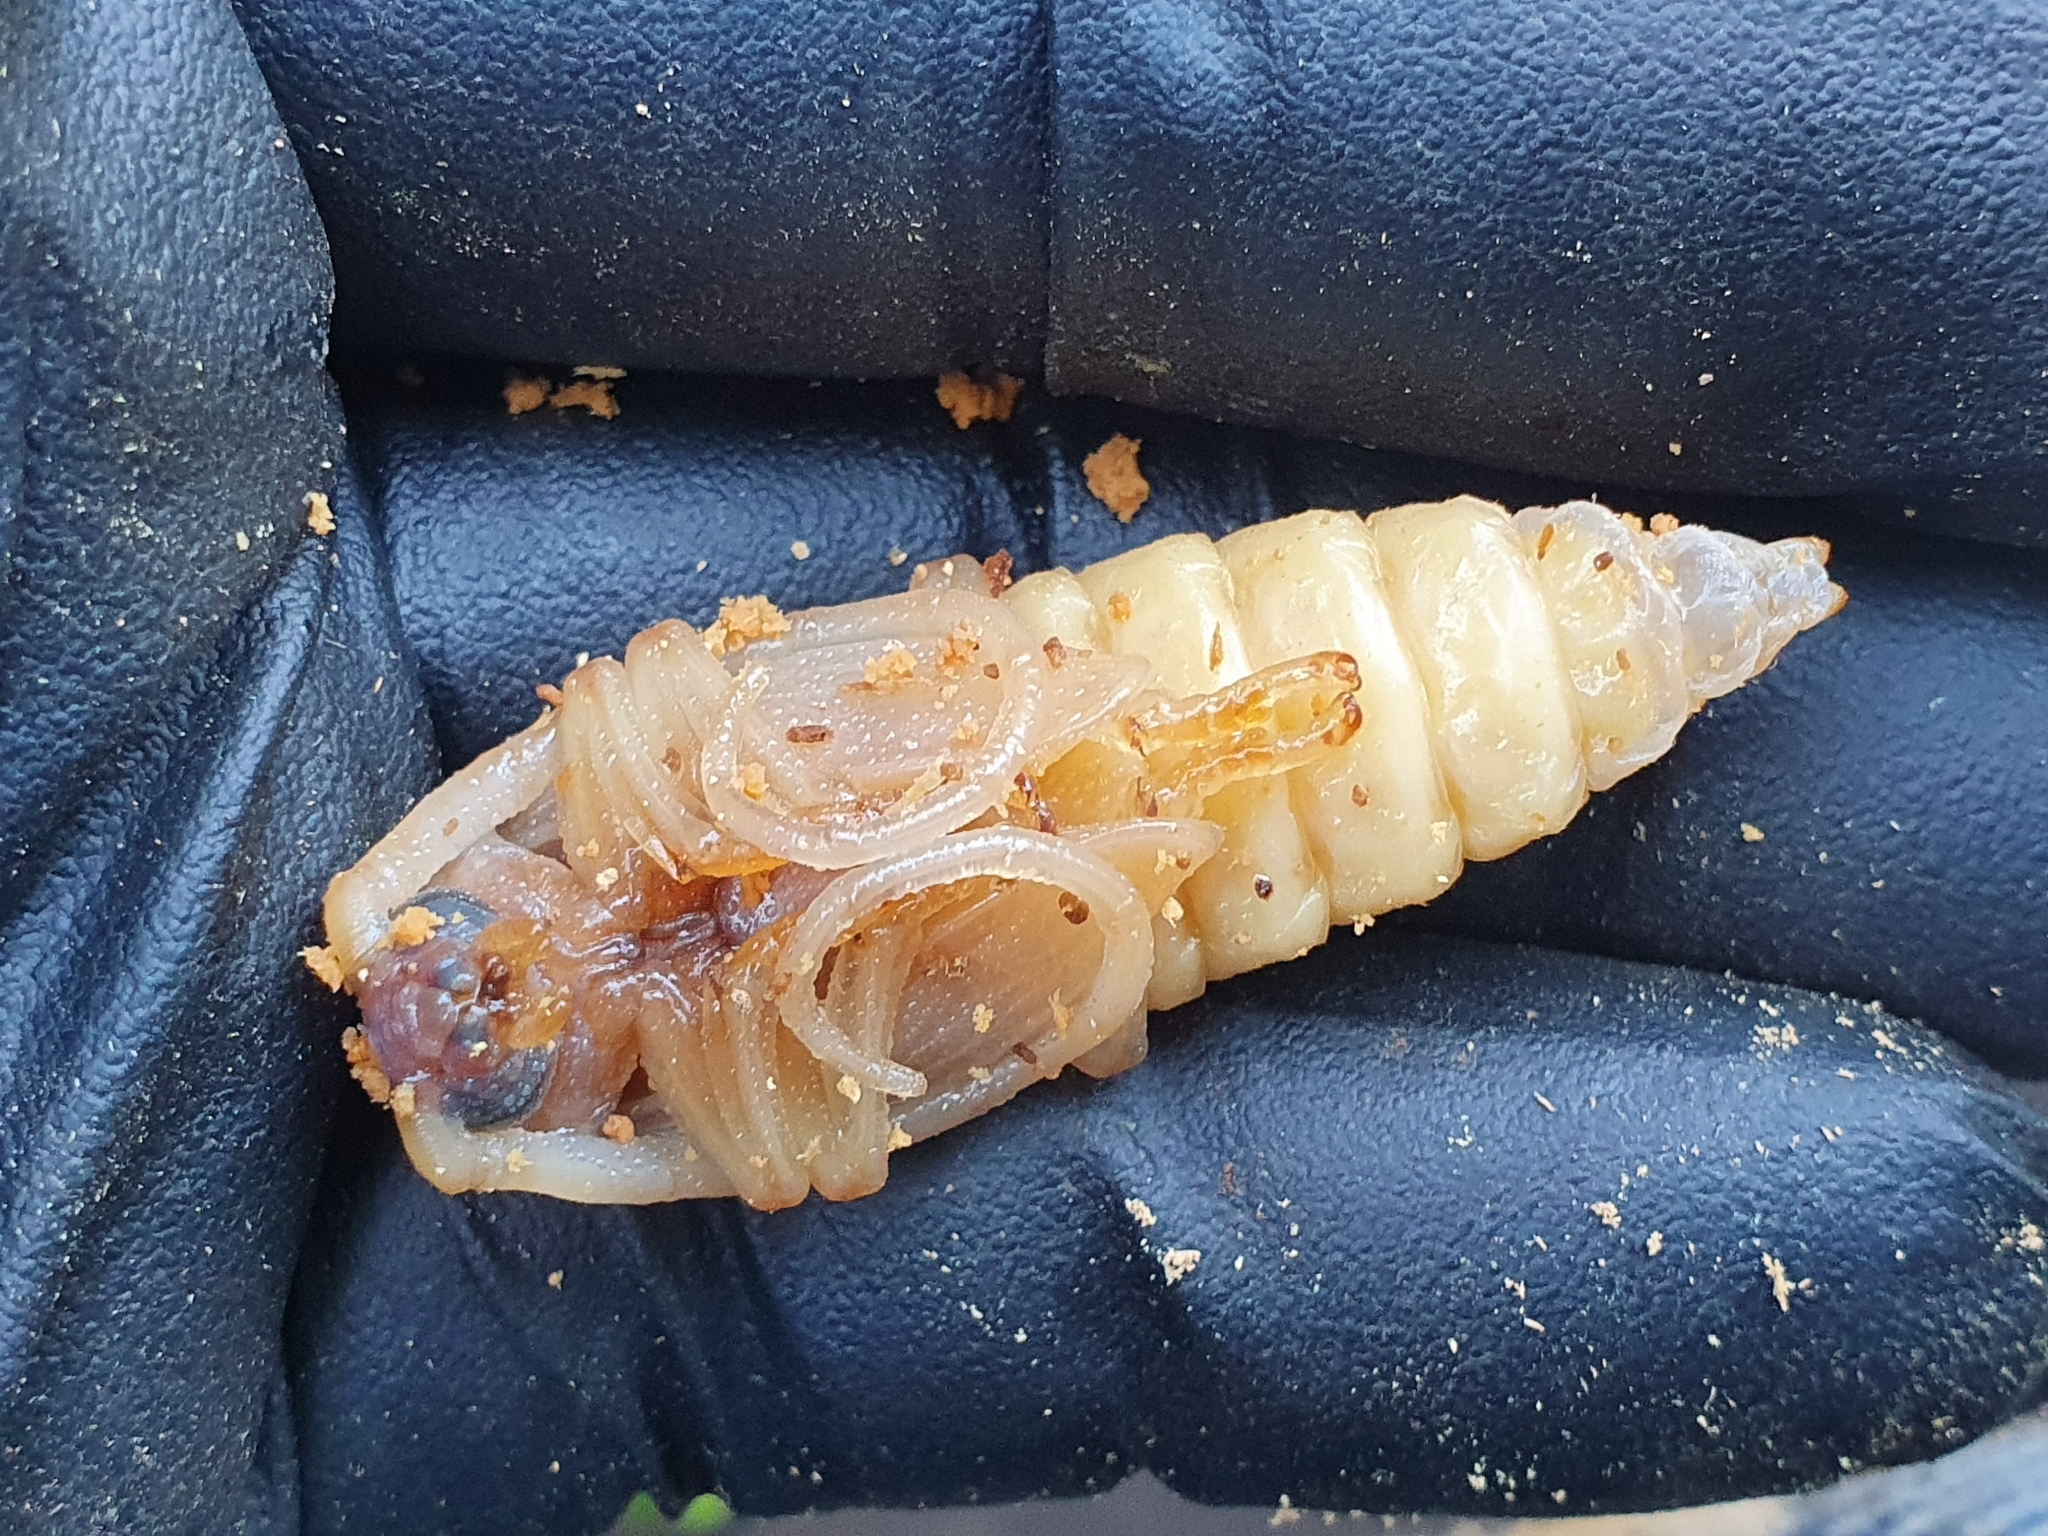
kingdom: Animalia
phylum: Arthropoda
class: Insecta
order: Coleoptera
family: Cerambycidae
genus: Prionoplus
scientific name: Prionoplus reticularis
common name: Huhu beetle
